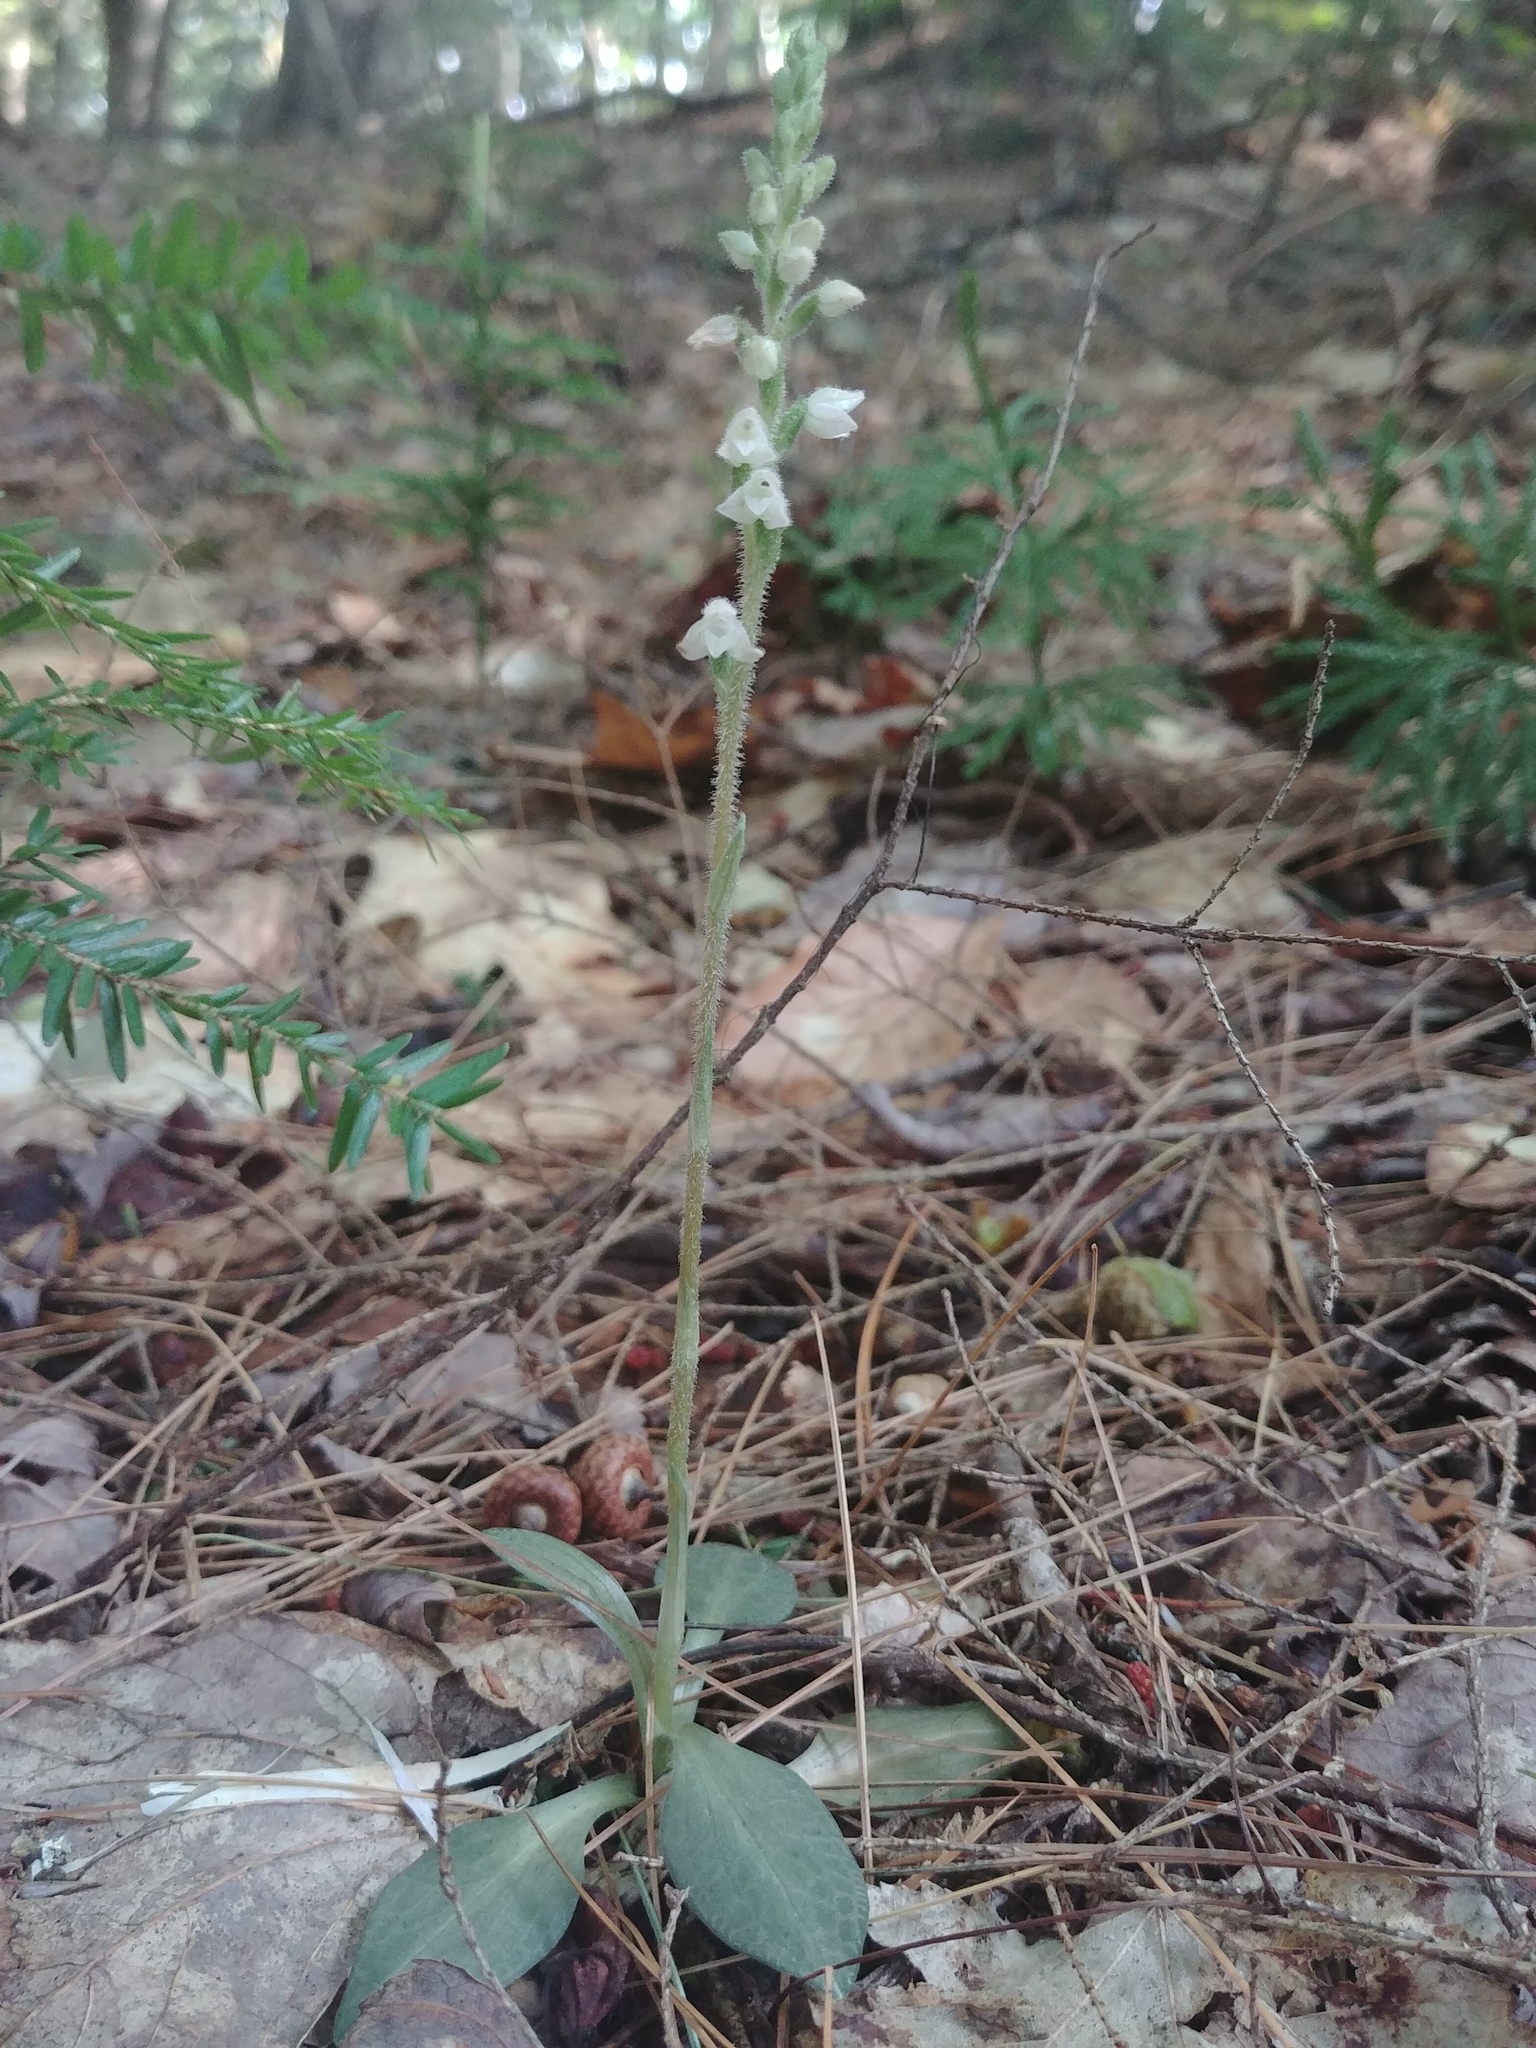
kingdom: Plantae
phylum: Tracheophyta
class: Liliopsida
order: Asparagales
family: Orchidaceae
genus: Goodyera
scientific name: Goodyera tesselata
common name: Checkered rattlesnake-plantain
